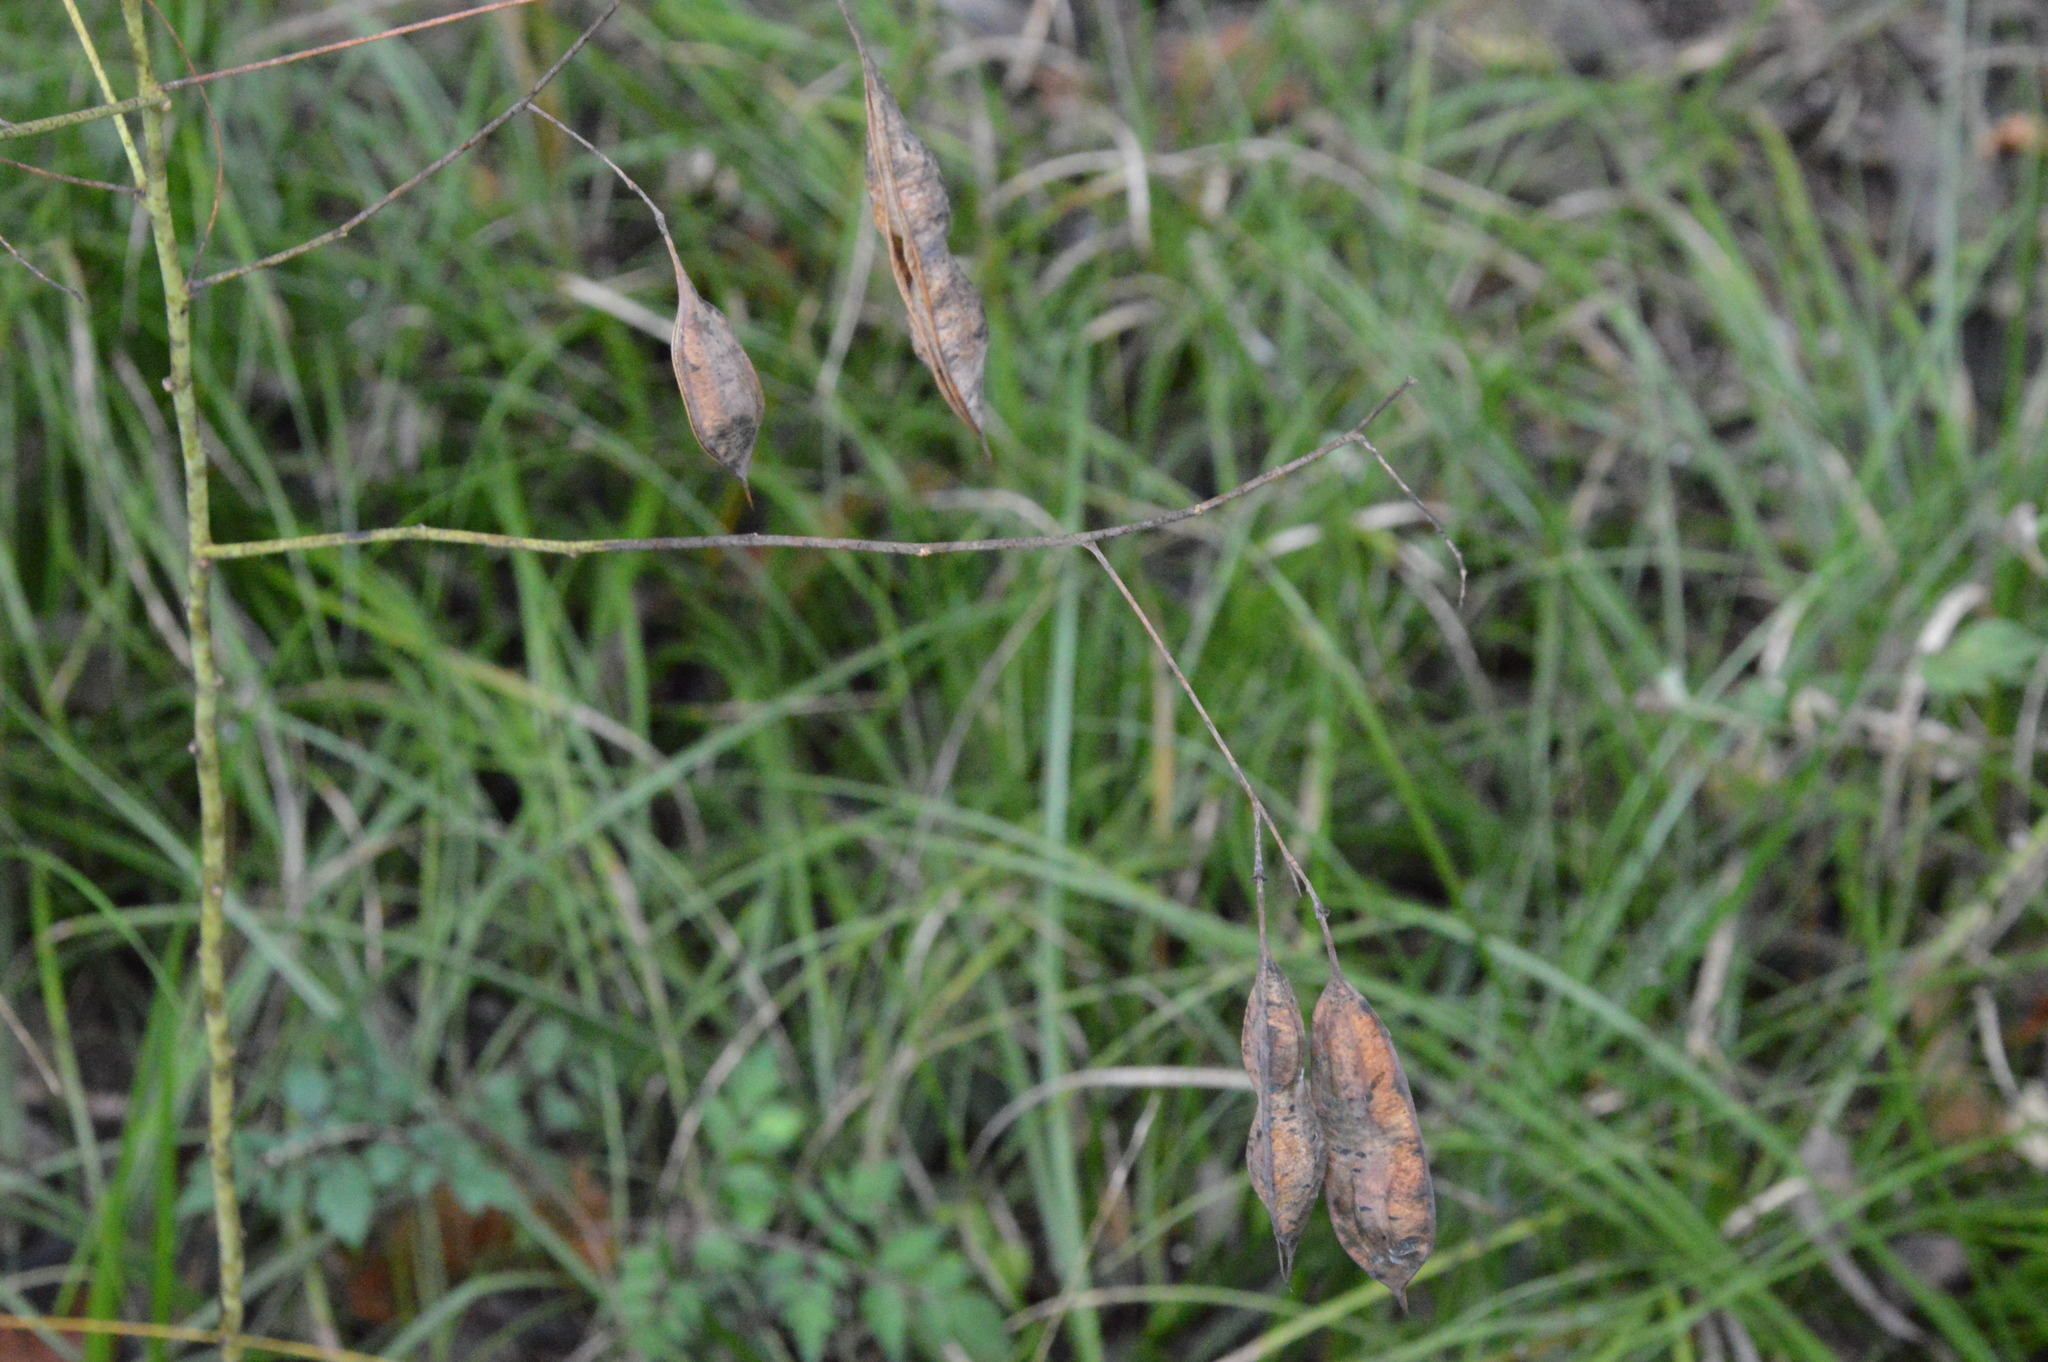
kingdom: Plantae
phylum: Tracheophyta
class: Magnoliopsida
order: Fabales
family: Fabaceae
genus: Sesbania
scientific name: Sesbania vesicaria
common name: Bagpod
